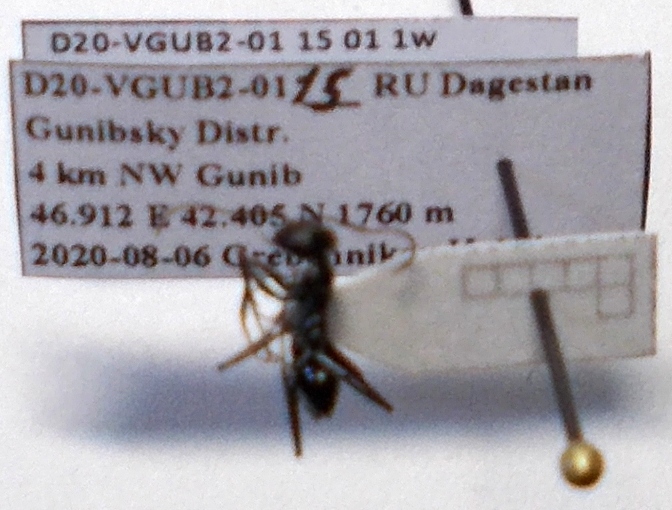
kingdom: Animalia
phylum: Arthropoda
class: Insecta
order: Hymenoptera
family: Formicidae
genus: Cataglyphis
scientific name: Cataglyphis aenescens
